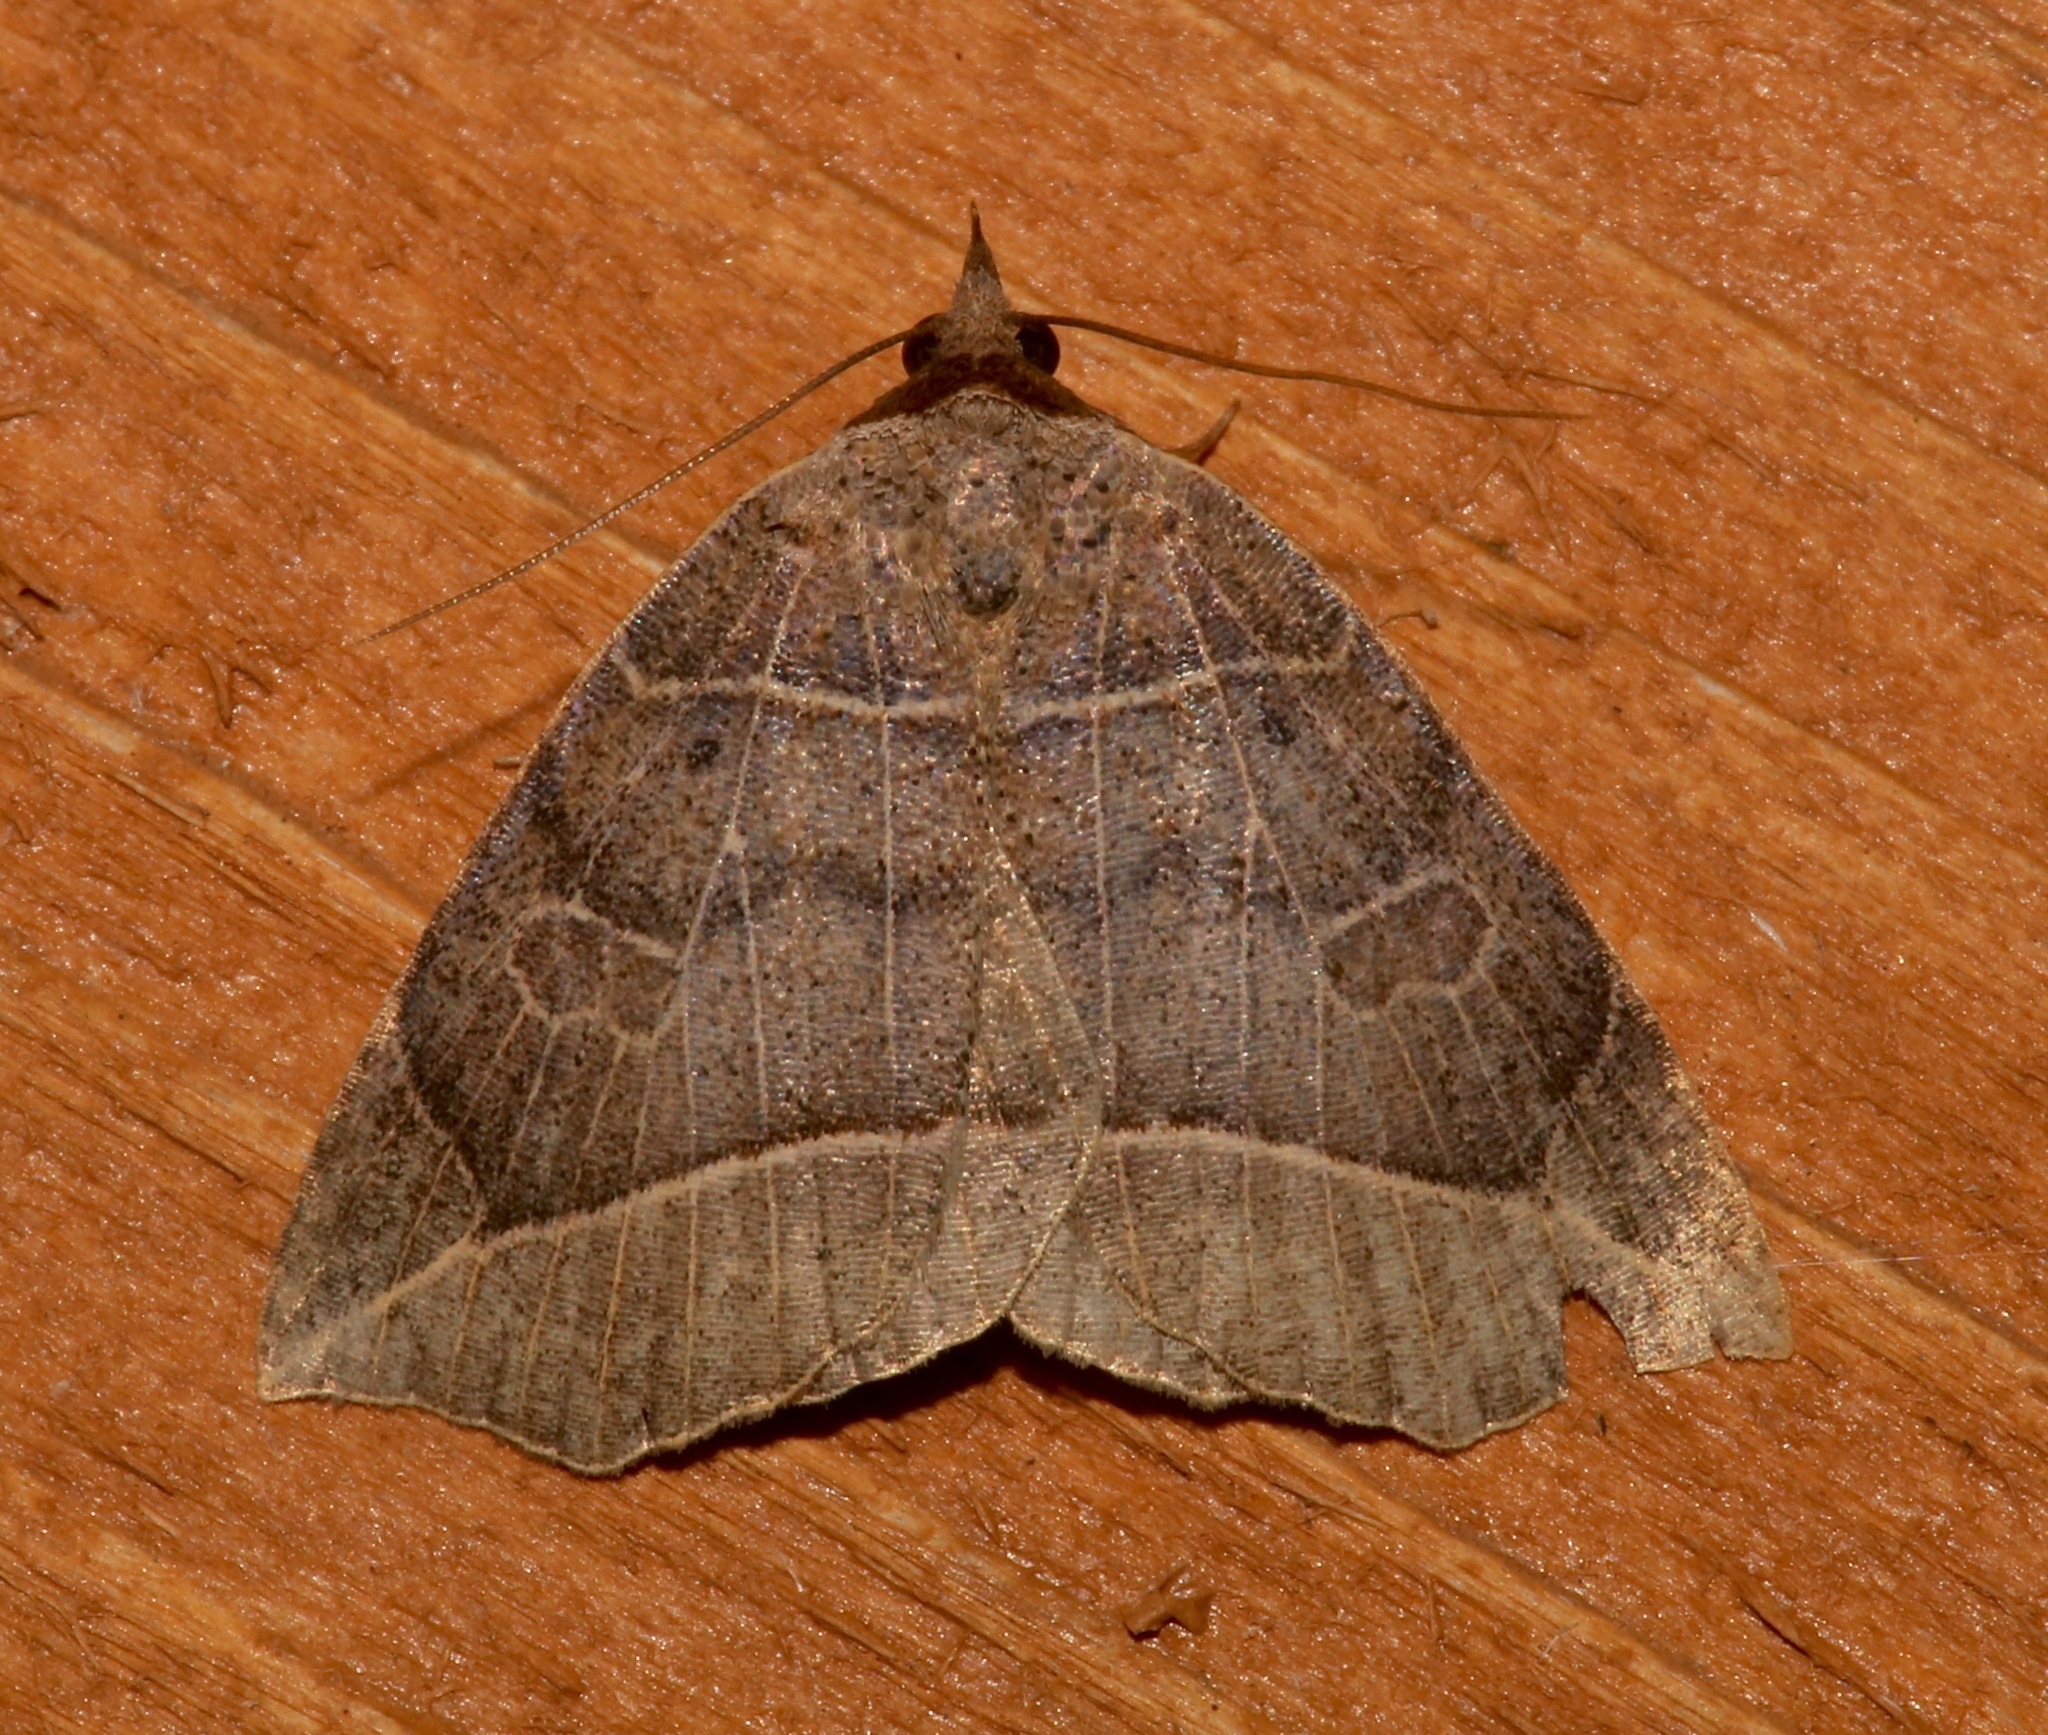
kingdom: Animalia
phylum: Arthropoda
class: Insecta
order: Lepidoptera
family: Erebidae
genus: Isogona
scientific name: Isogona tenuis
